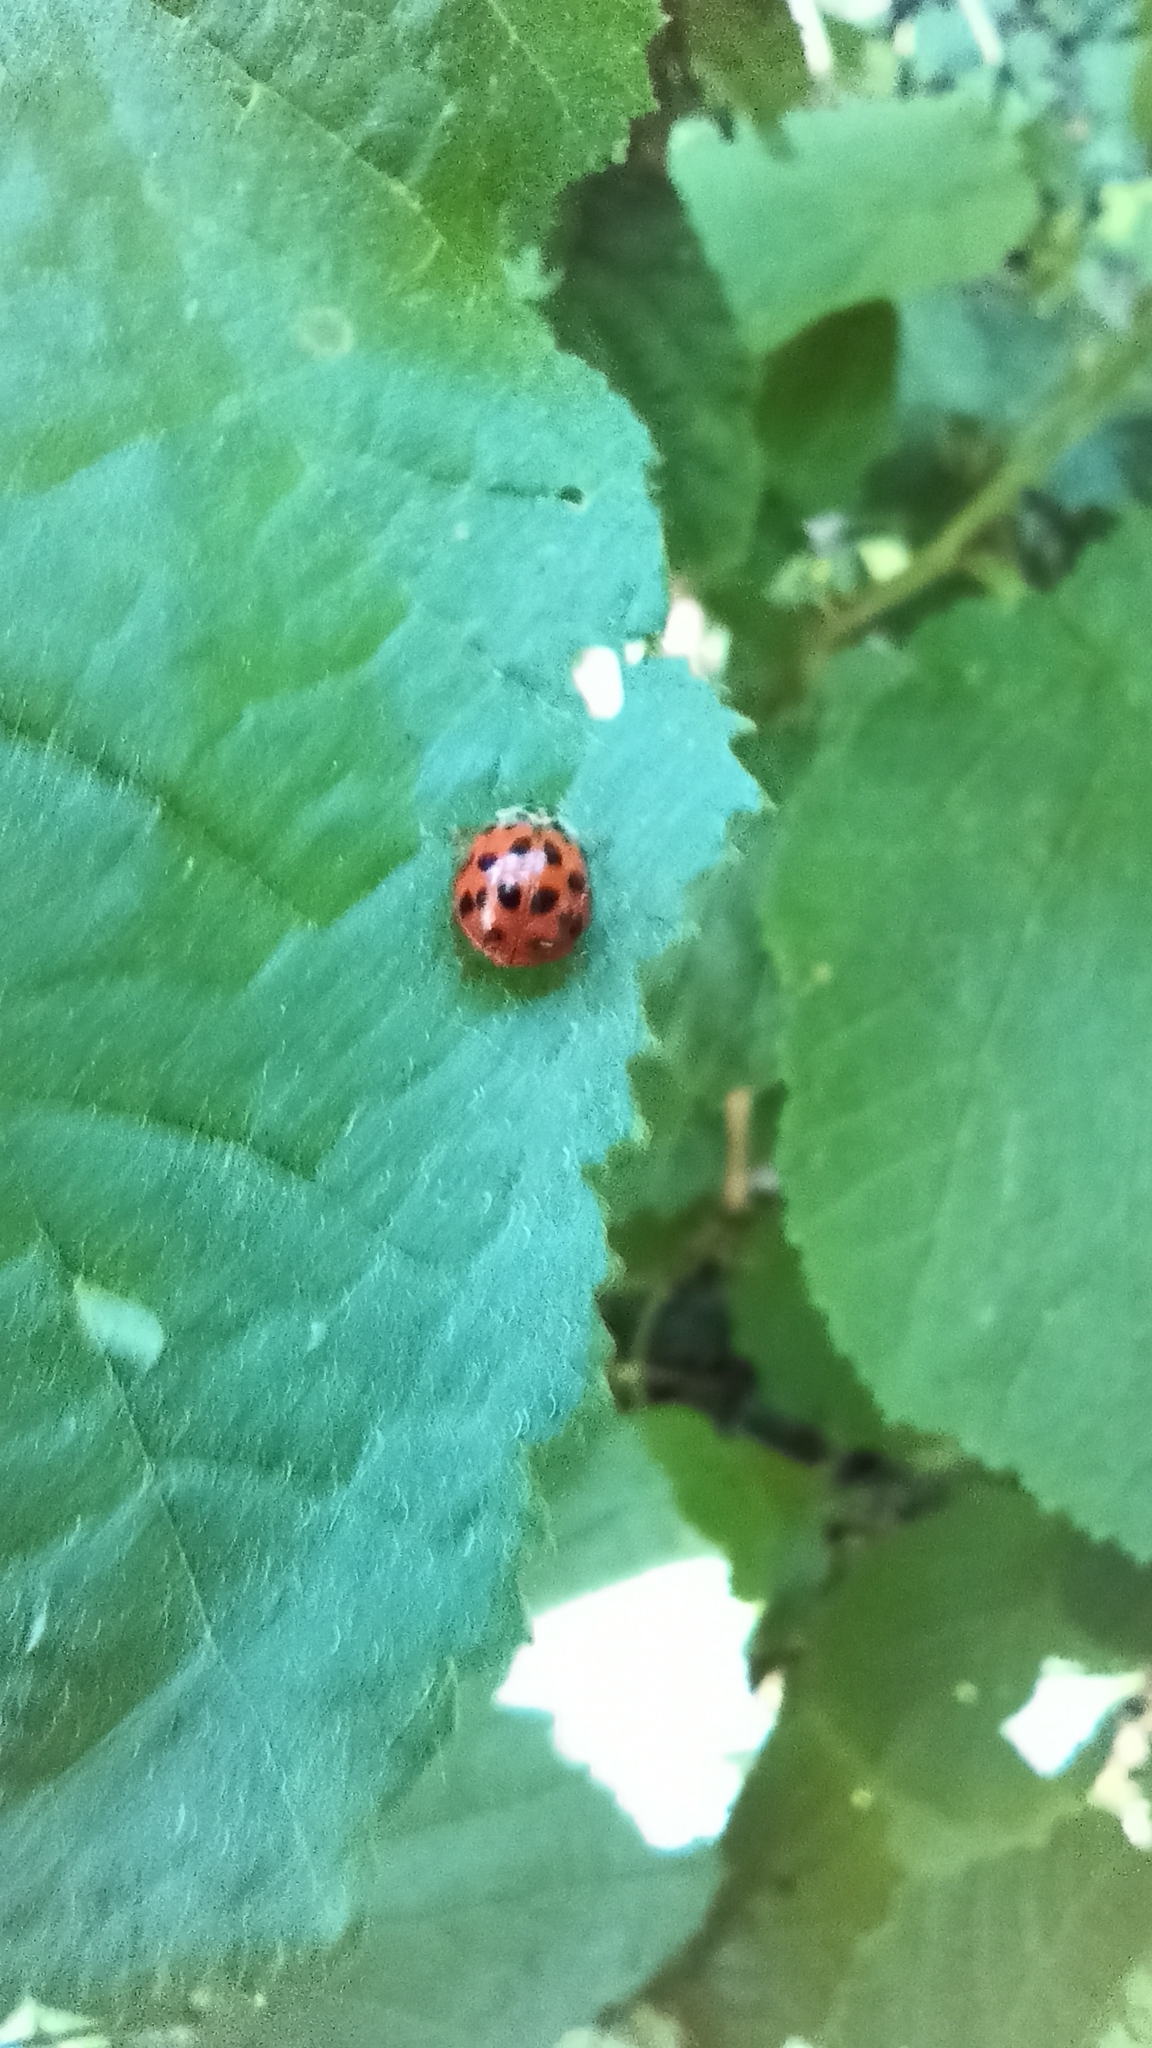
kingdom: Animalia
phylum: Arthropoda
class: Insecta
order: Coleoptera
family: Coccinellidae
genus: Harmonia
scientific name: Harmonia axyridis
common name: Harlequin ladybird
